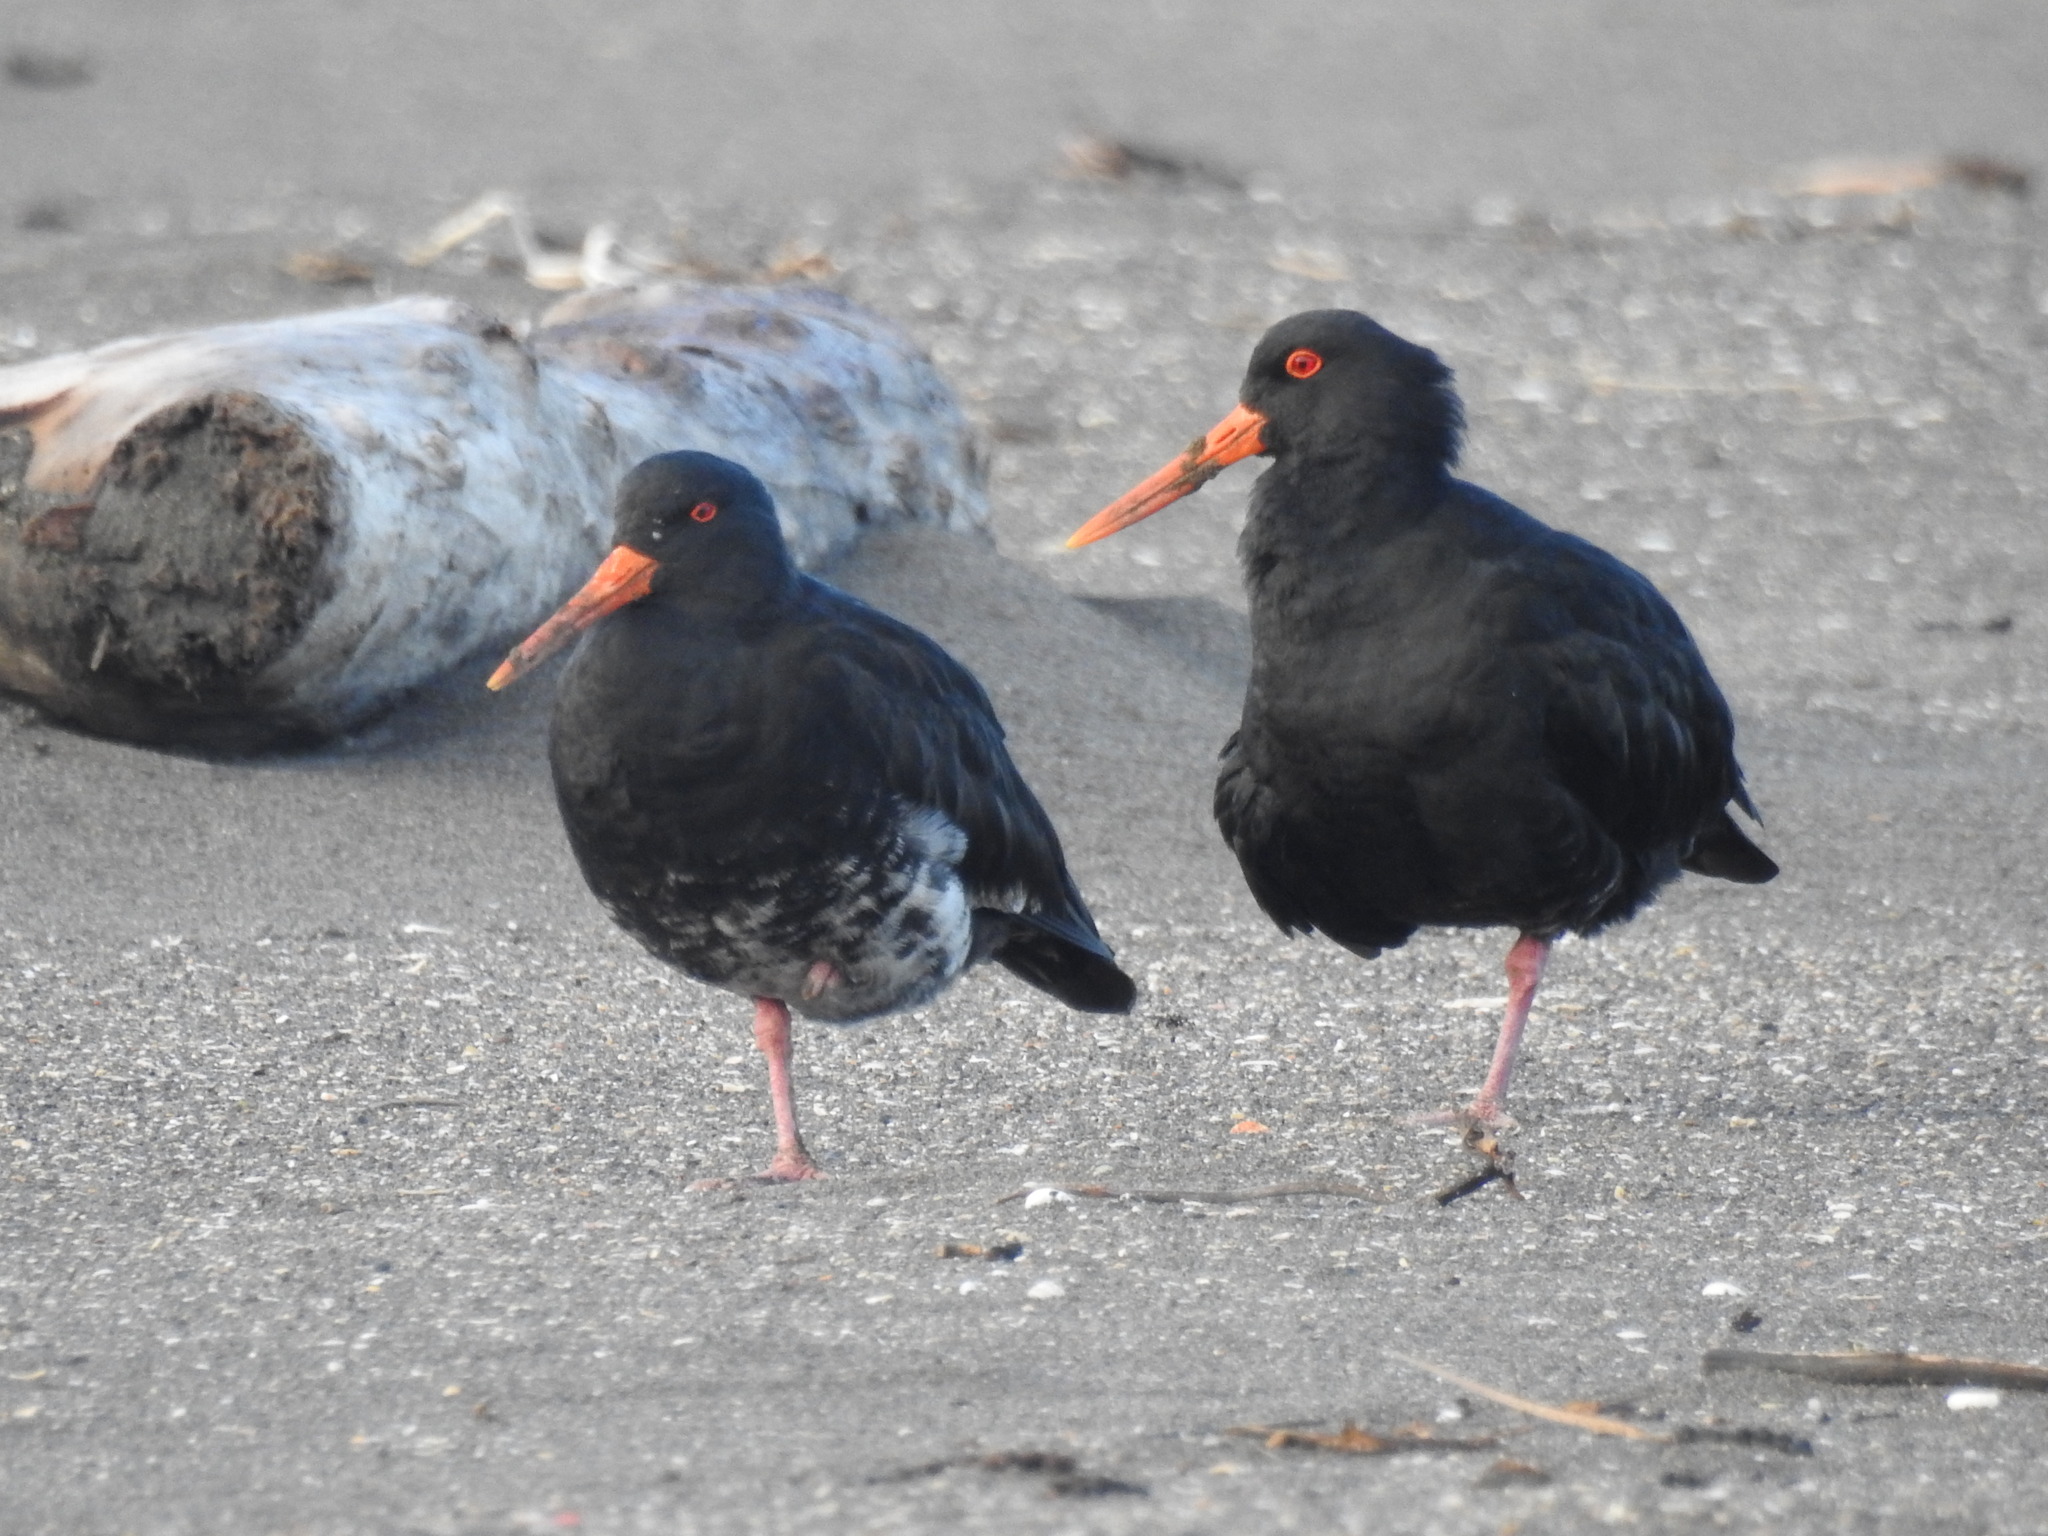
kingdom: Animalia
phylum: Chordata
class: Aves
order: Charadriiformes
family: Haematopodidae
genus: Haematopus
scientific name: Haematopus unicolor
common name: Variable oystercatcher
